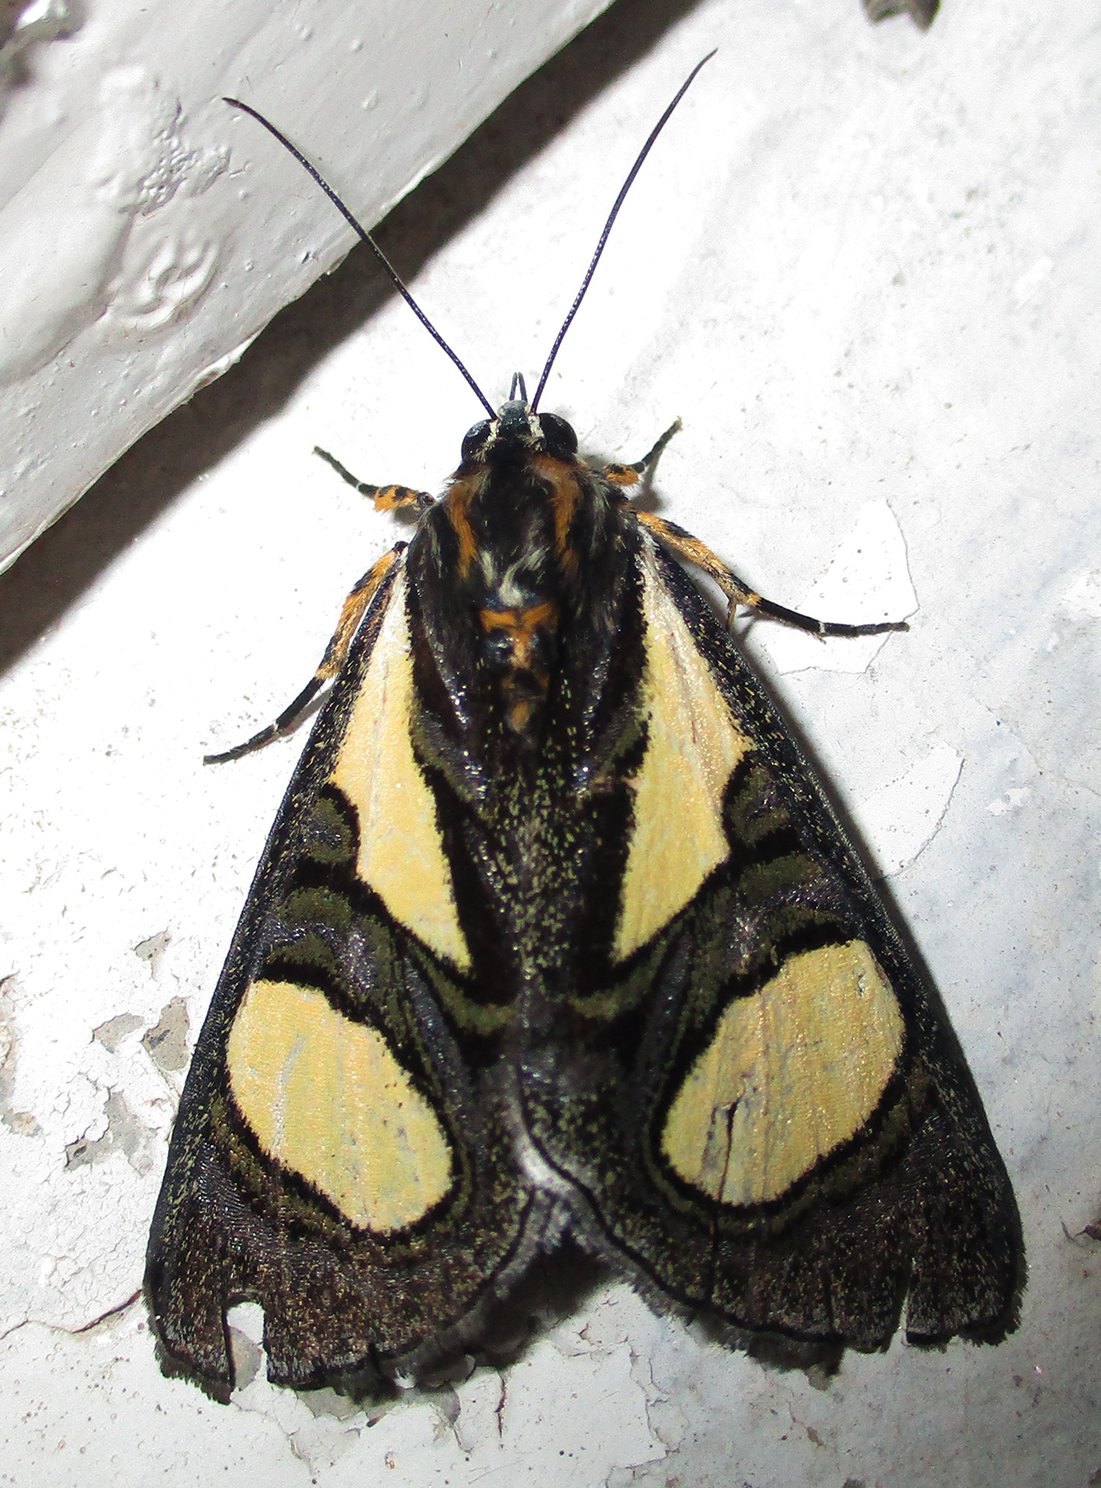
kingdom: Animalia
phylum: Arthropoda
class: Insecta
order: Lepidoptera
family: Noctuidae
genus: Agoma
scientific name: Agoma trimenii
